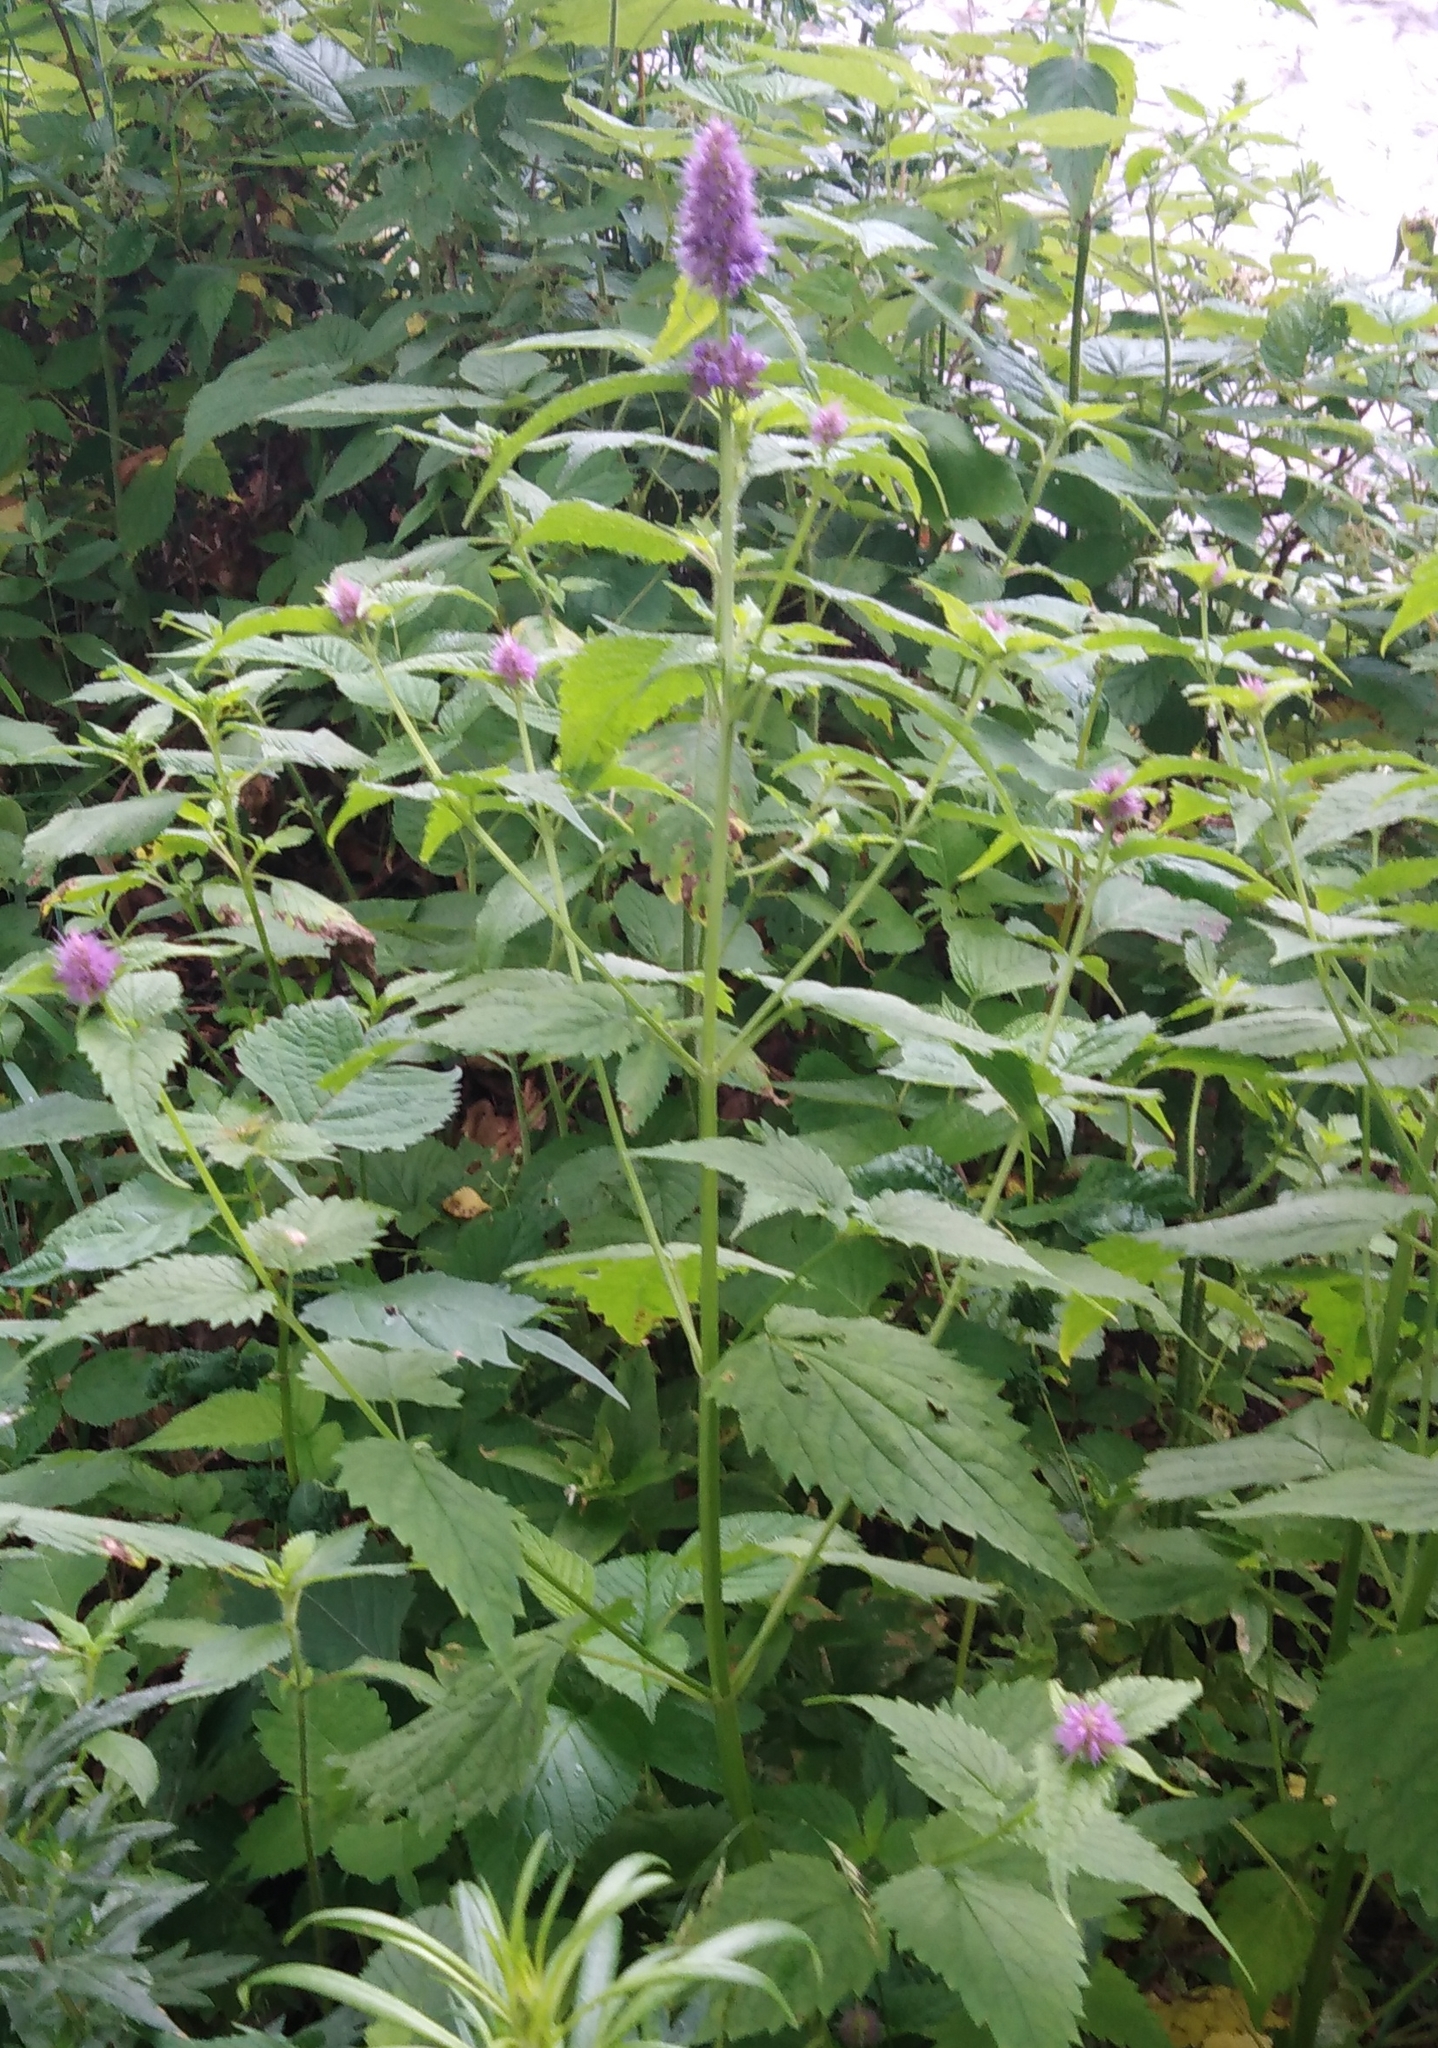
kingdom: Plantae
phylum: Tracheophyta
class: Magnoliopsida
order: Lamiales
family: Lamiaceae
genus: Agastache
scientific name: Agastache rugosa
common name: Mint
